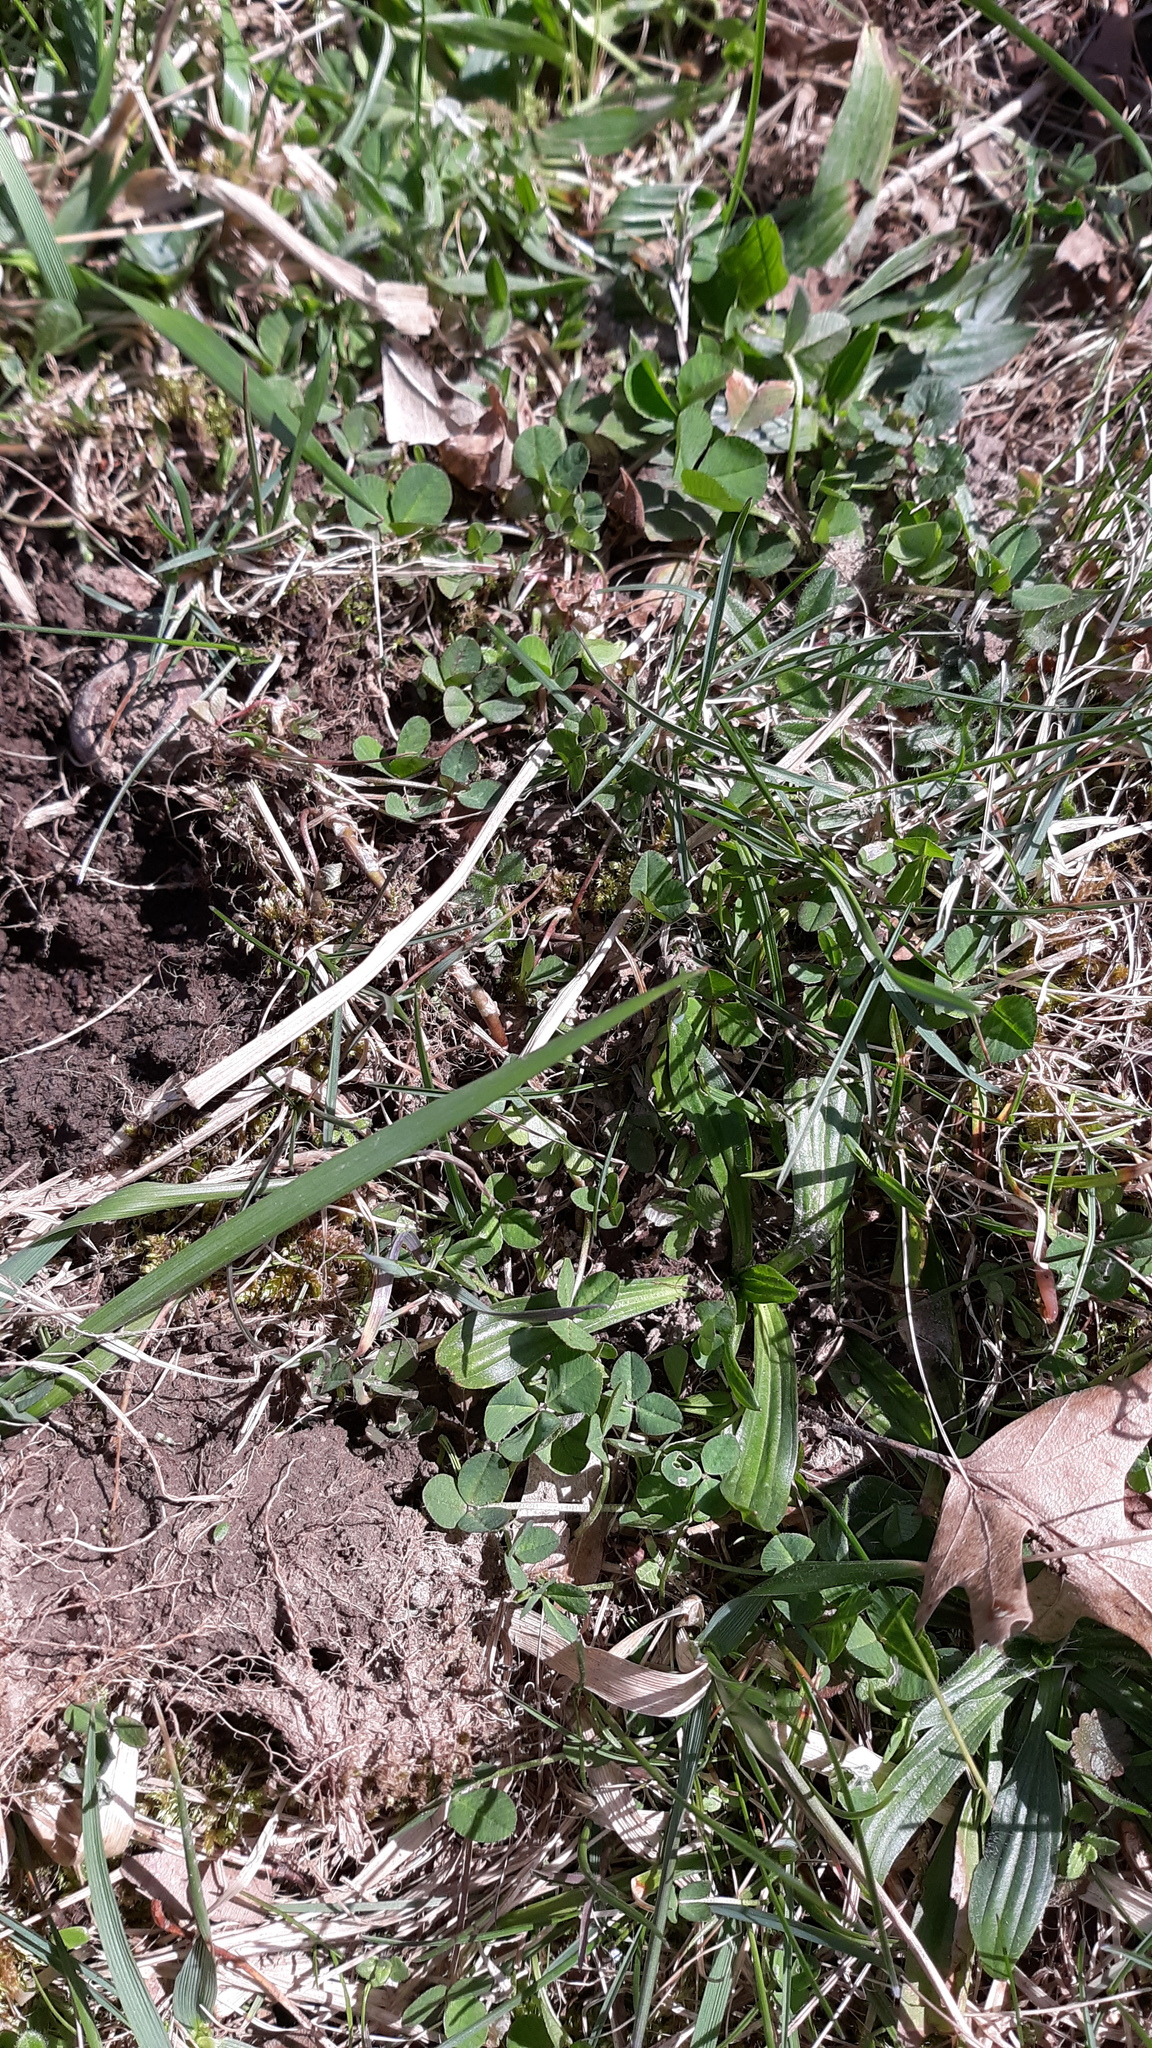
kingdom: Plantae
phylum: Tracheophyta
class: Magnoliopsida
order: Fabales
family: Fabaceae
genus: Trifolium
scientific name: Trifolium repens
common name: White clover
